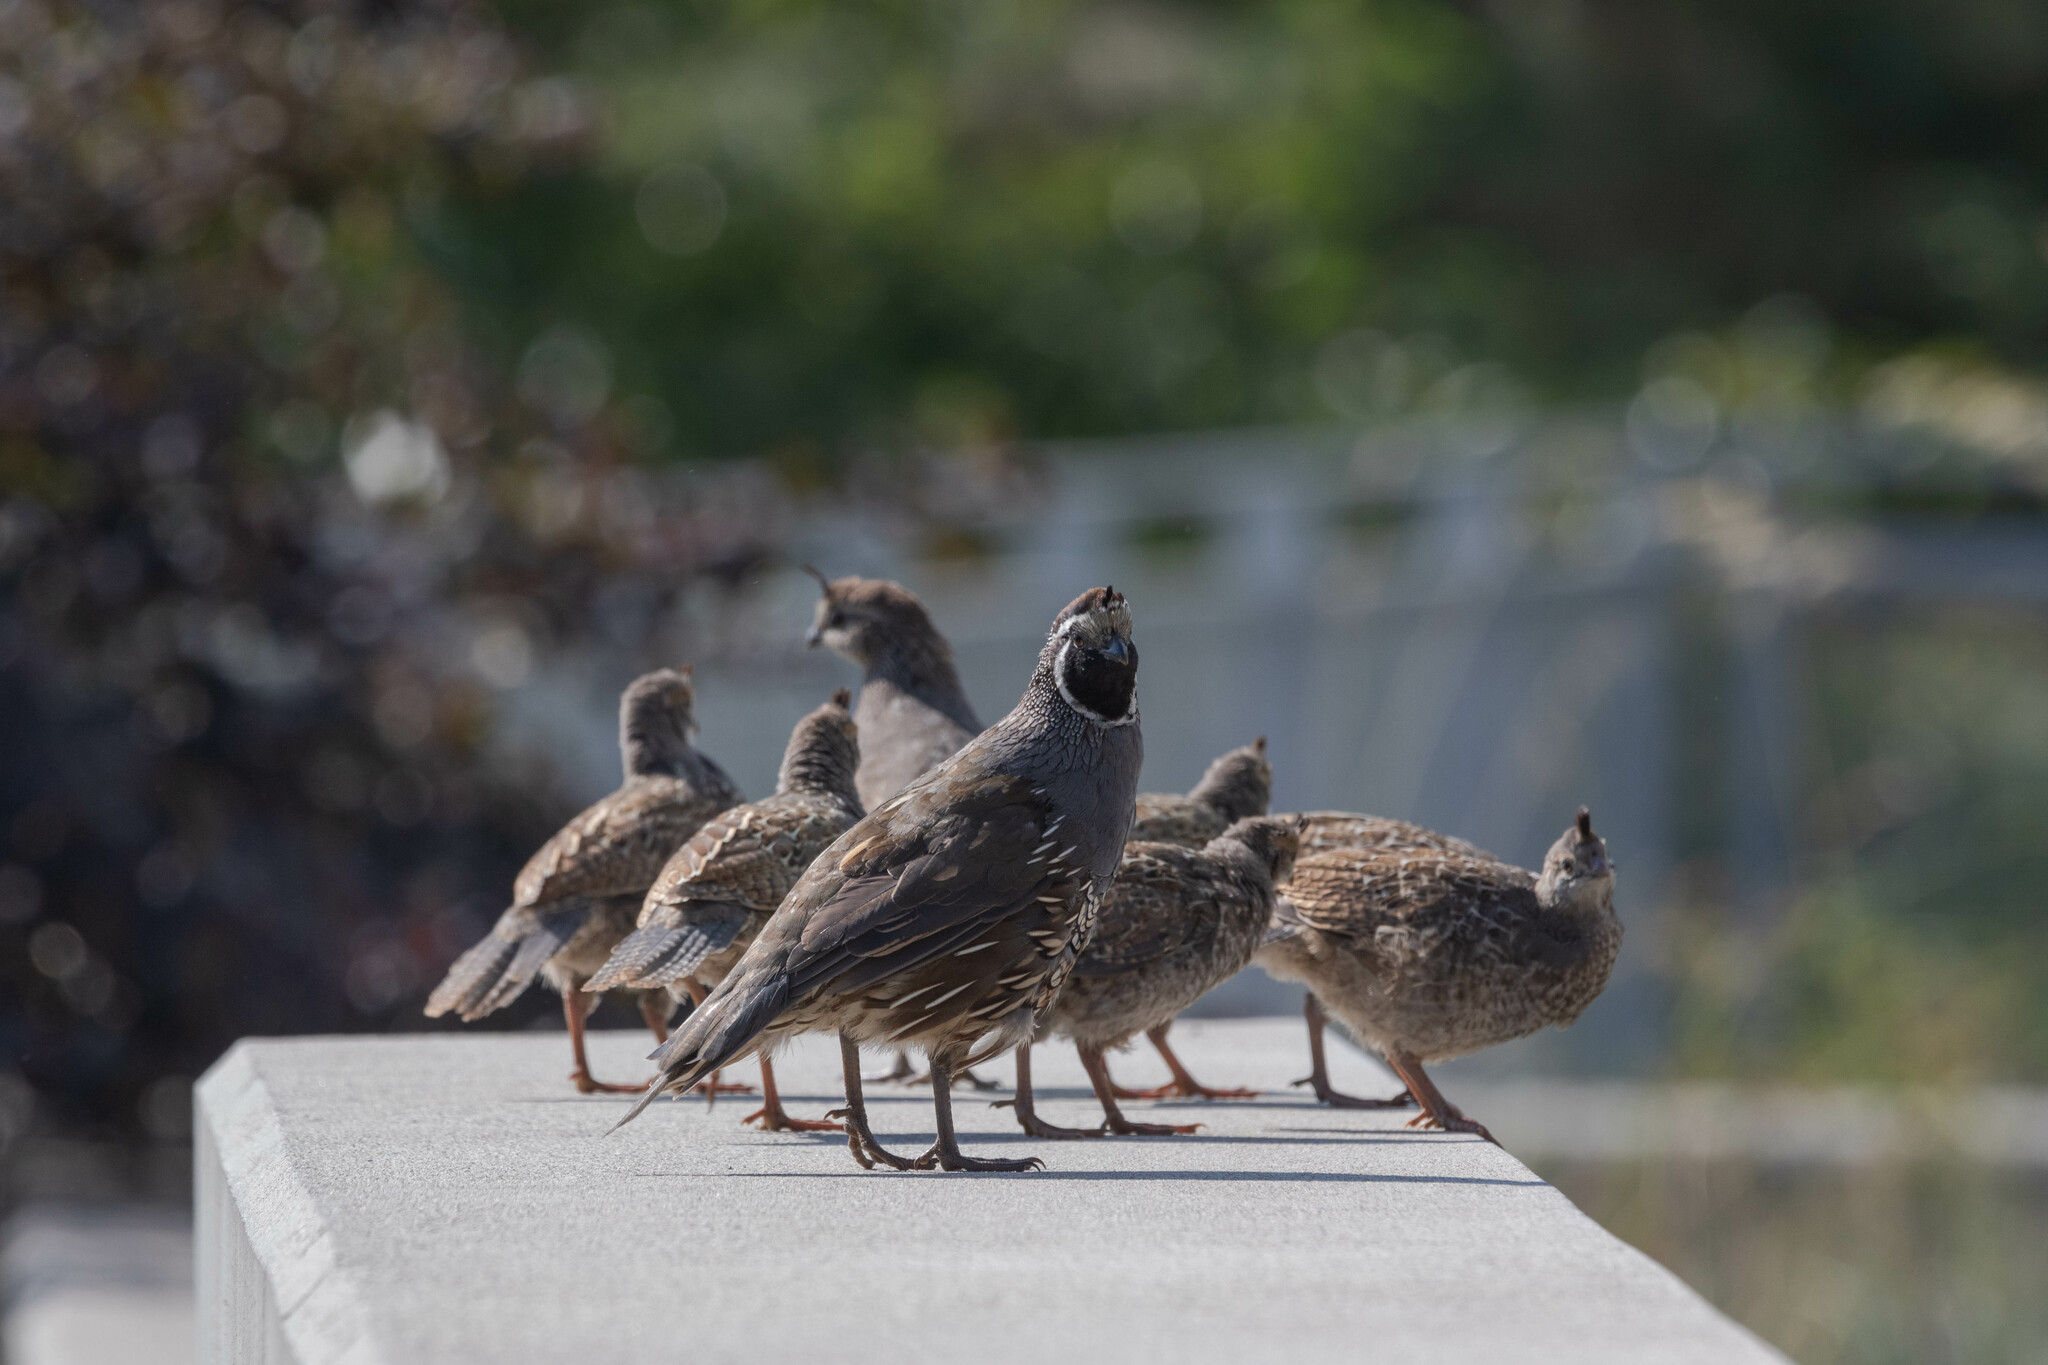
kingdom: Animalia
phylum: Chordata
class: Aves
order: Galliformes
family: Odontophoridae
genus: Callipepla
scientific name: Callipepla californica
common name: California quail
